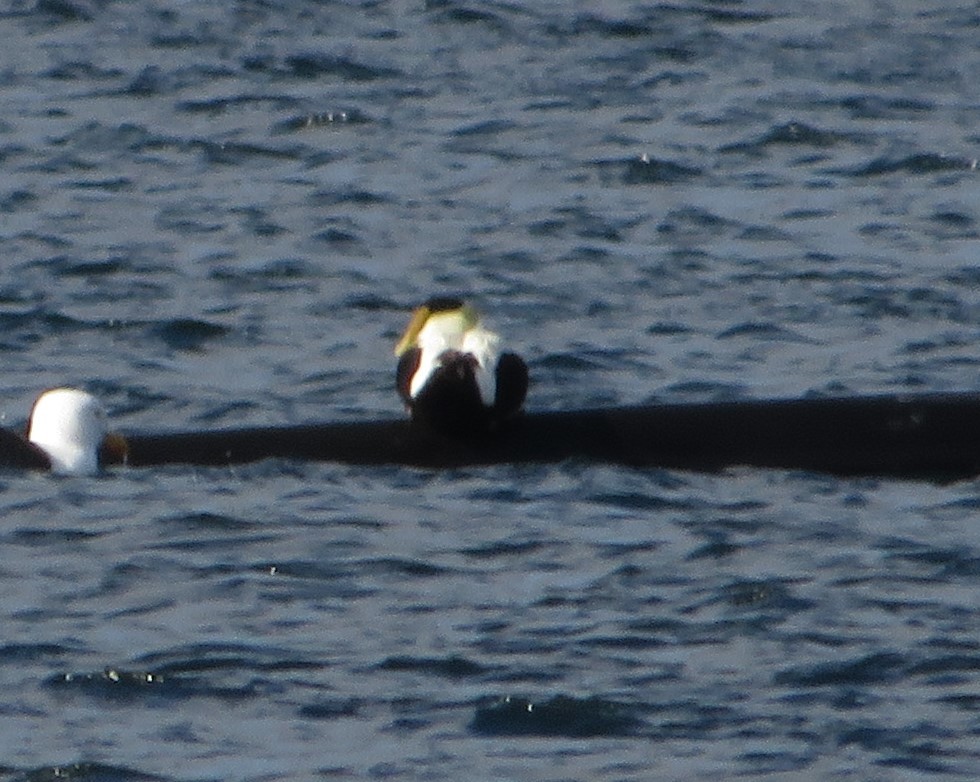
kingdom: Animalia
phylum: Chordata
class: Aves
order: Anseriformes
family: Anatidae
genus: Somateria
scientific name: Somateria mollissima
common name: Common eider
